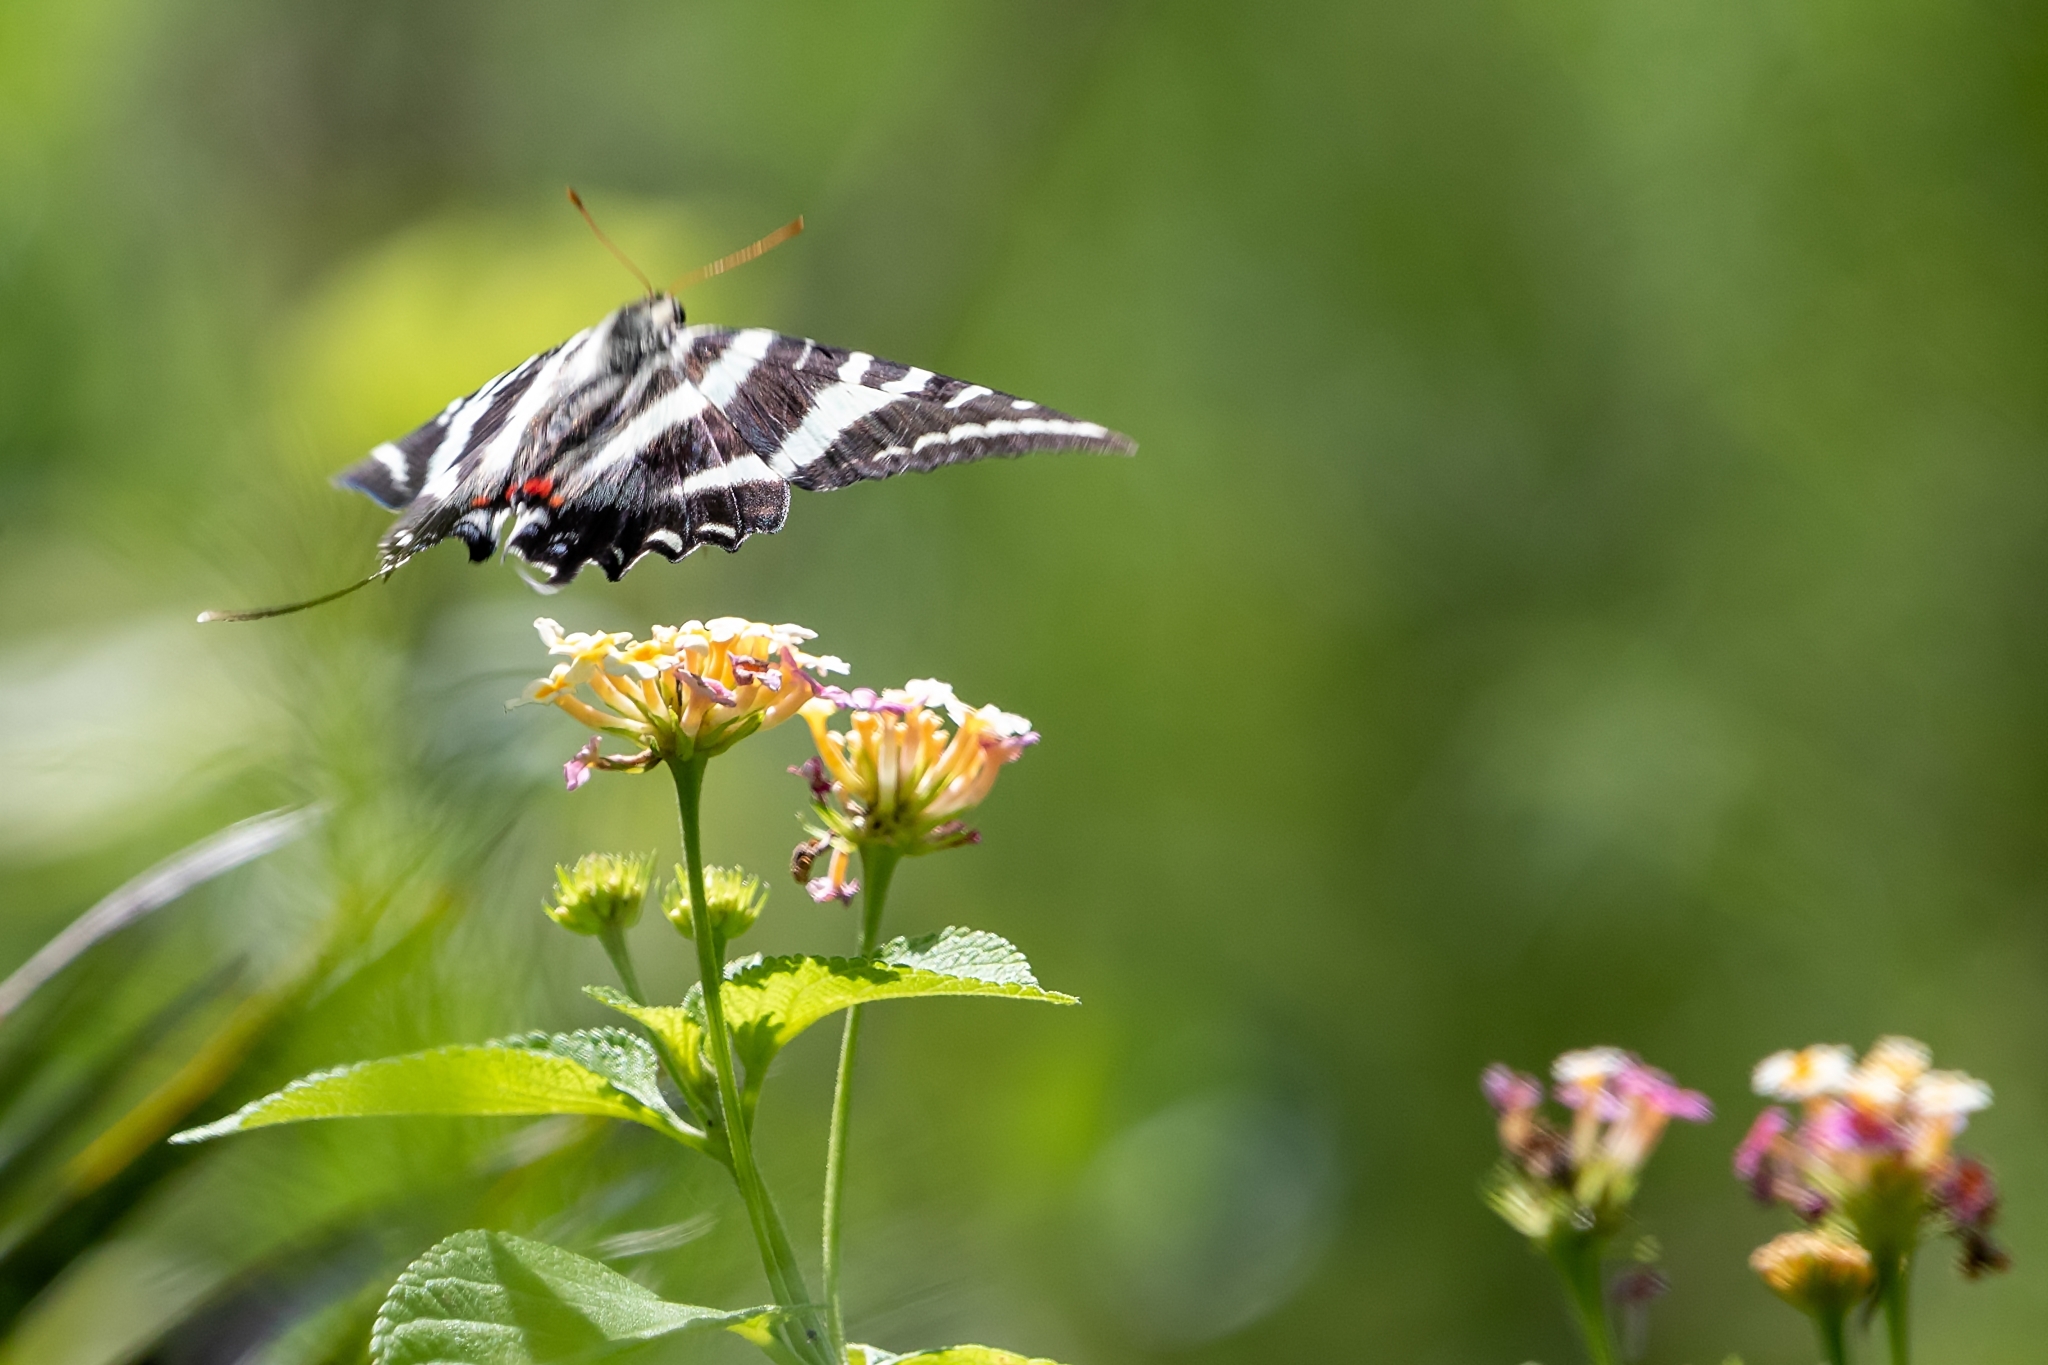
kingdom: Animalia
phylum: Arthropoda
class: Insecta
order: Lepidoptera
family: Papilionidae
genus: Protographium
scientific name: Protographium marcellus
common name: Zebra swallowtail
